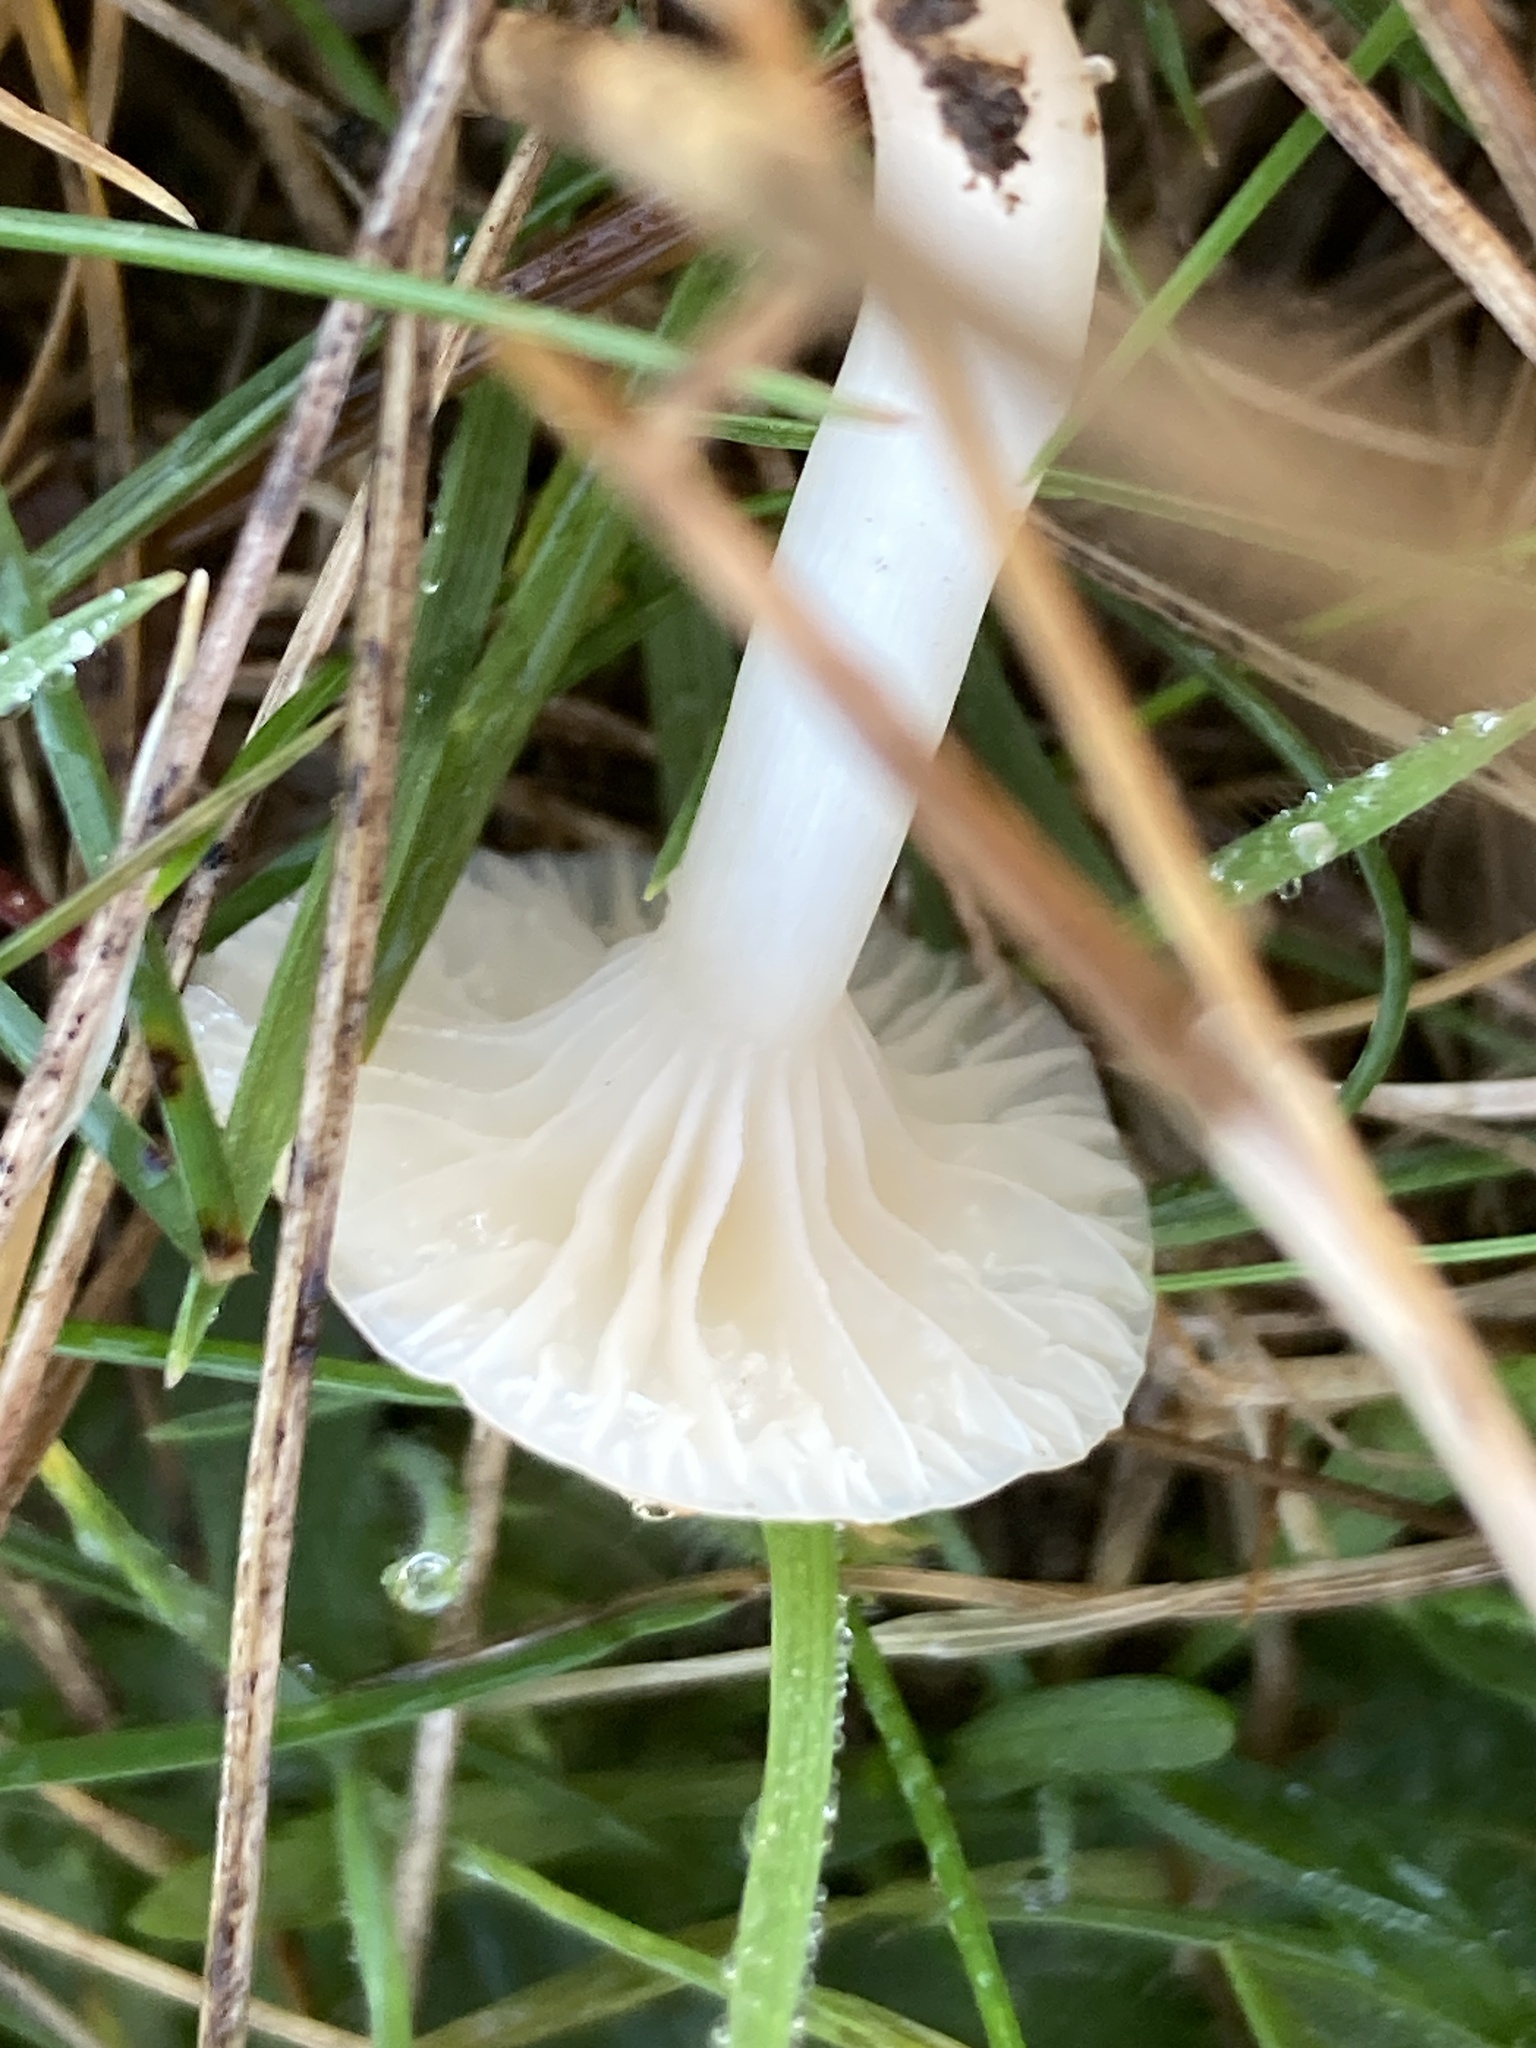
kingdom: Fungi
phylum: Basidiomycota
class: Agaricomycetes
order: Agaricales
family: Hygrophoraceae
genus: Cuphophyllus
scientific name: Cuphophyllus virgineus
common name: Snowy waxcap
